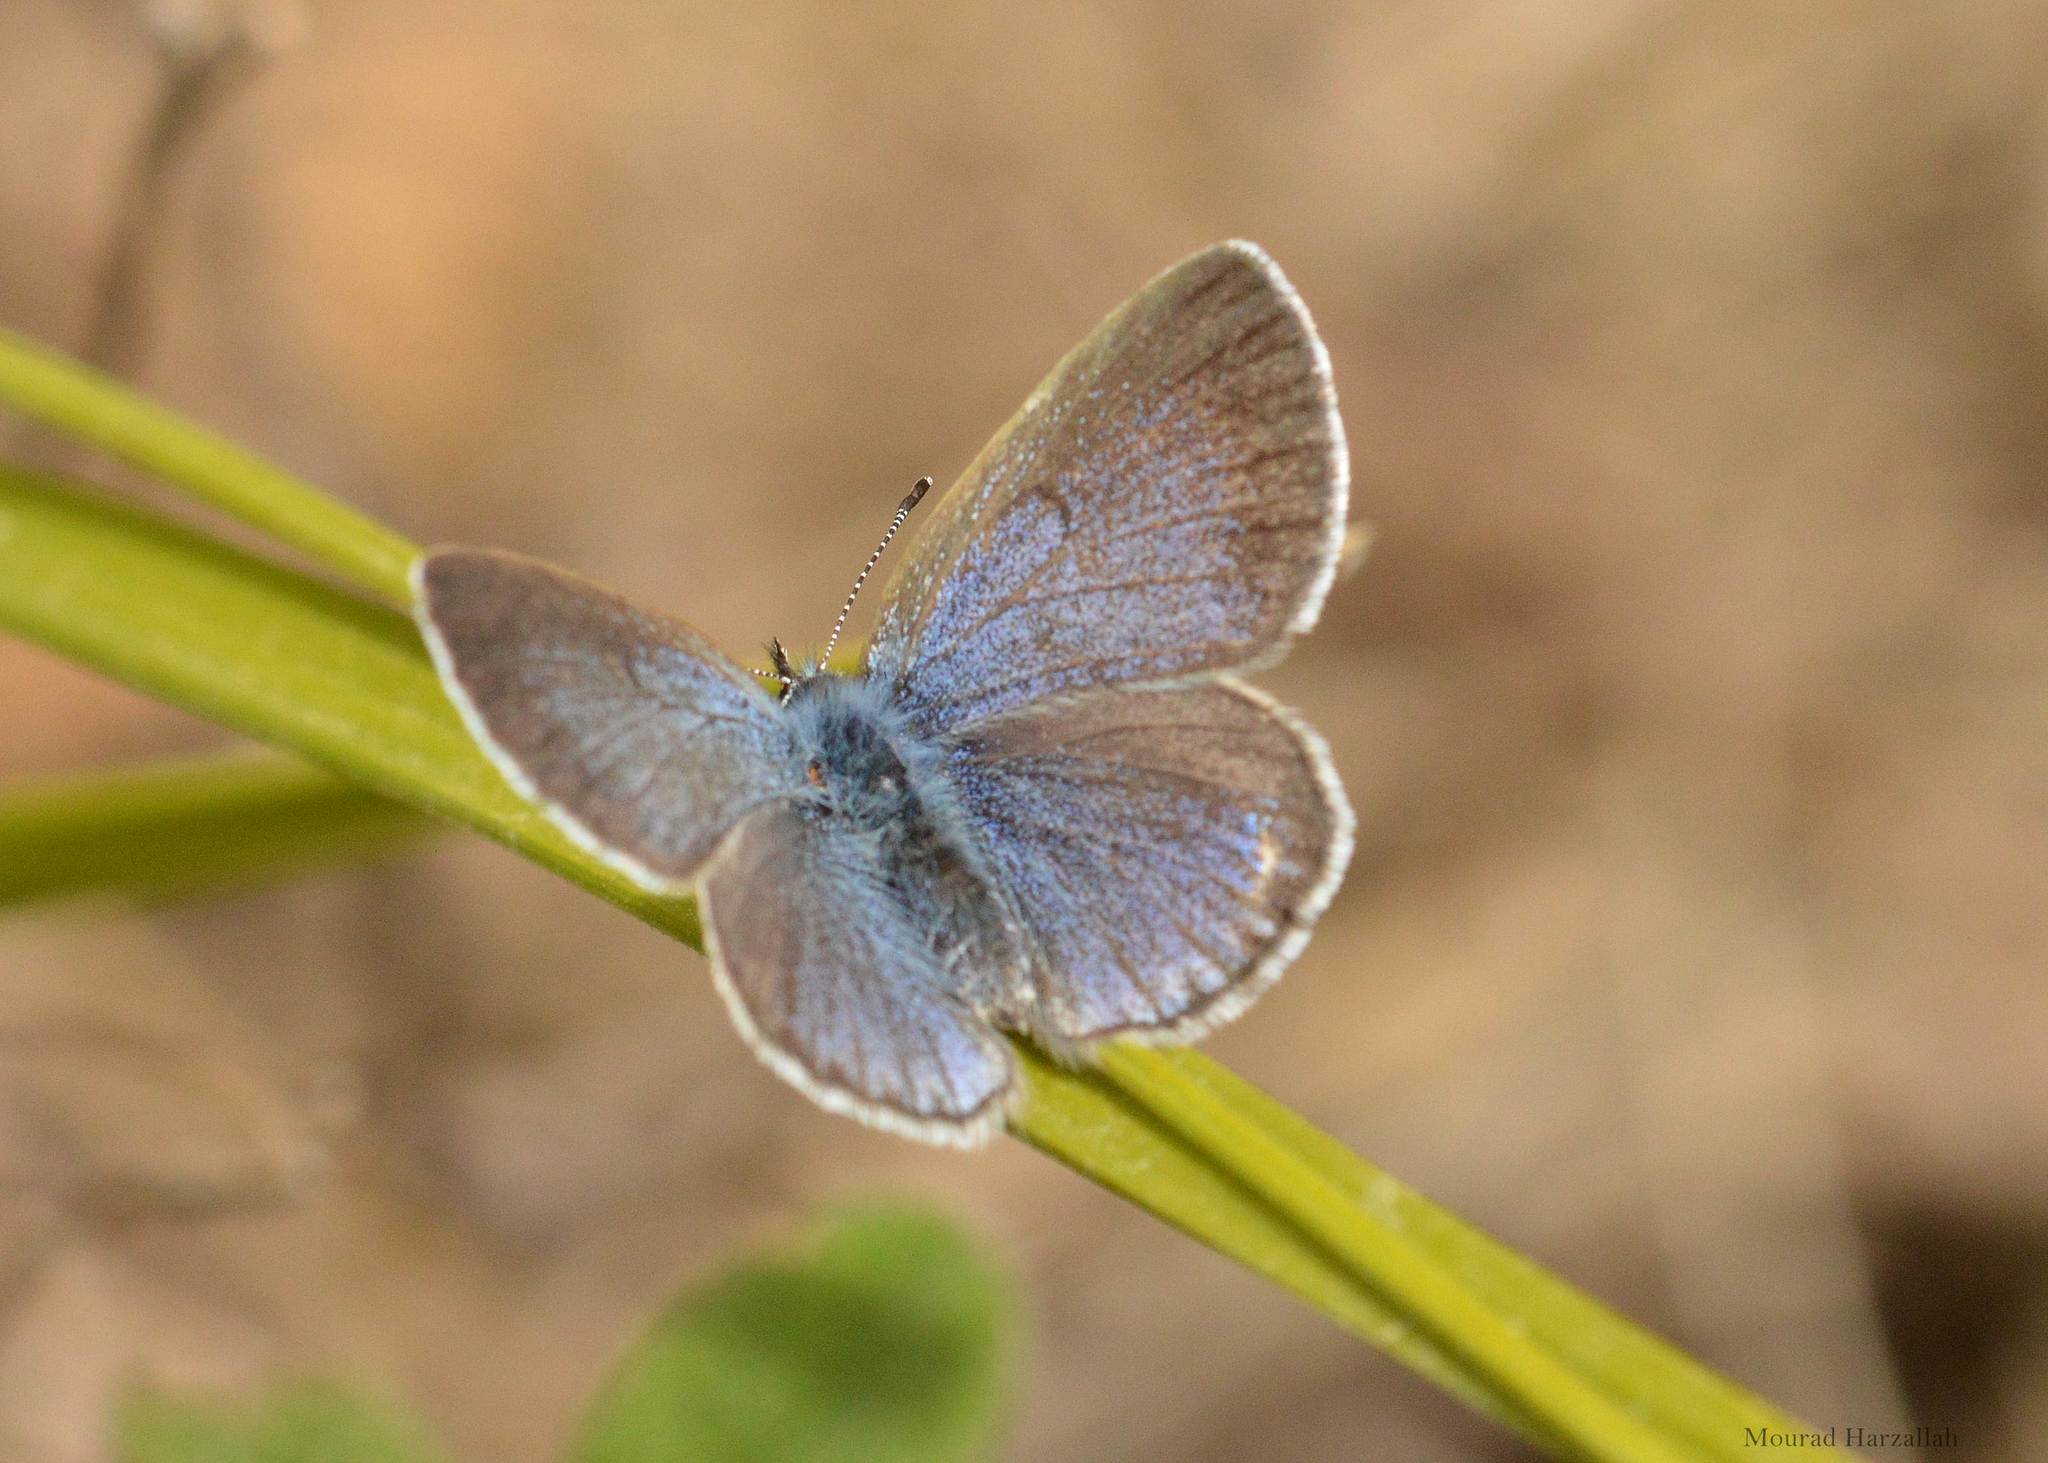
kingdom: Animalia
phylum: Arthropoda
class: Insecta
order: Lepidoptera
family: Lycaenidae
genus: Glaucopsyche
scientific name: Glaucopsyche melanops
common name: Black-eyed blue
